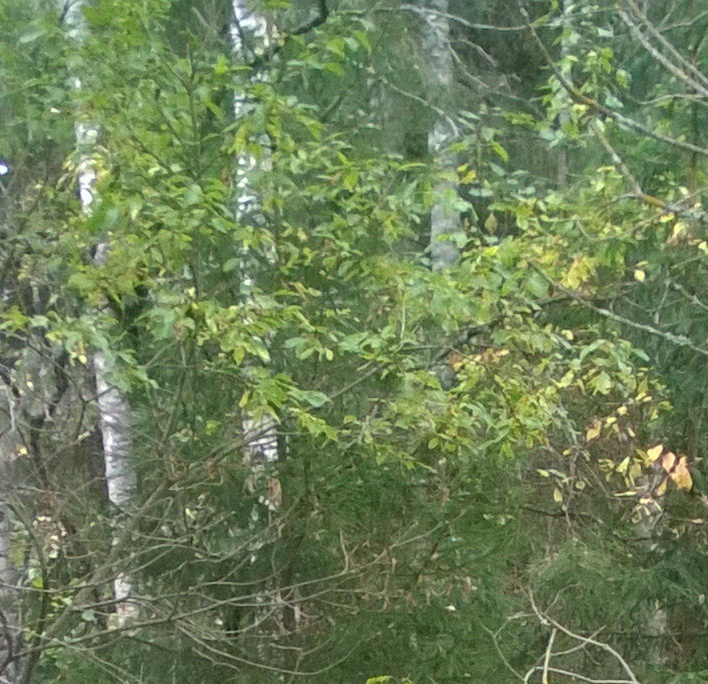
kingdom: Plantae
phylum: Tracheophyta
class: Magnoliopsida
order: Malpighiales
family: Salicaceae
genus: Salix
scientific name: Salix caprea
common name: Goat willow
